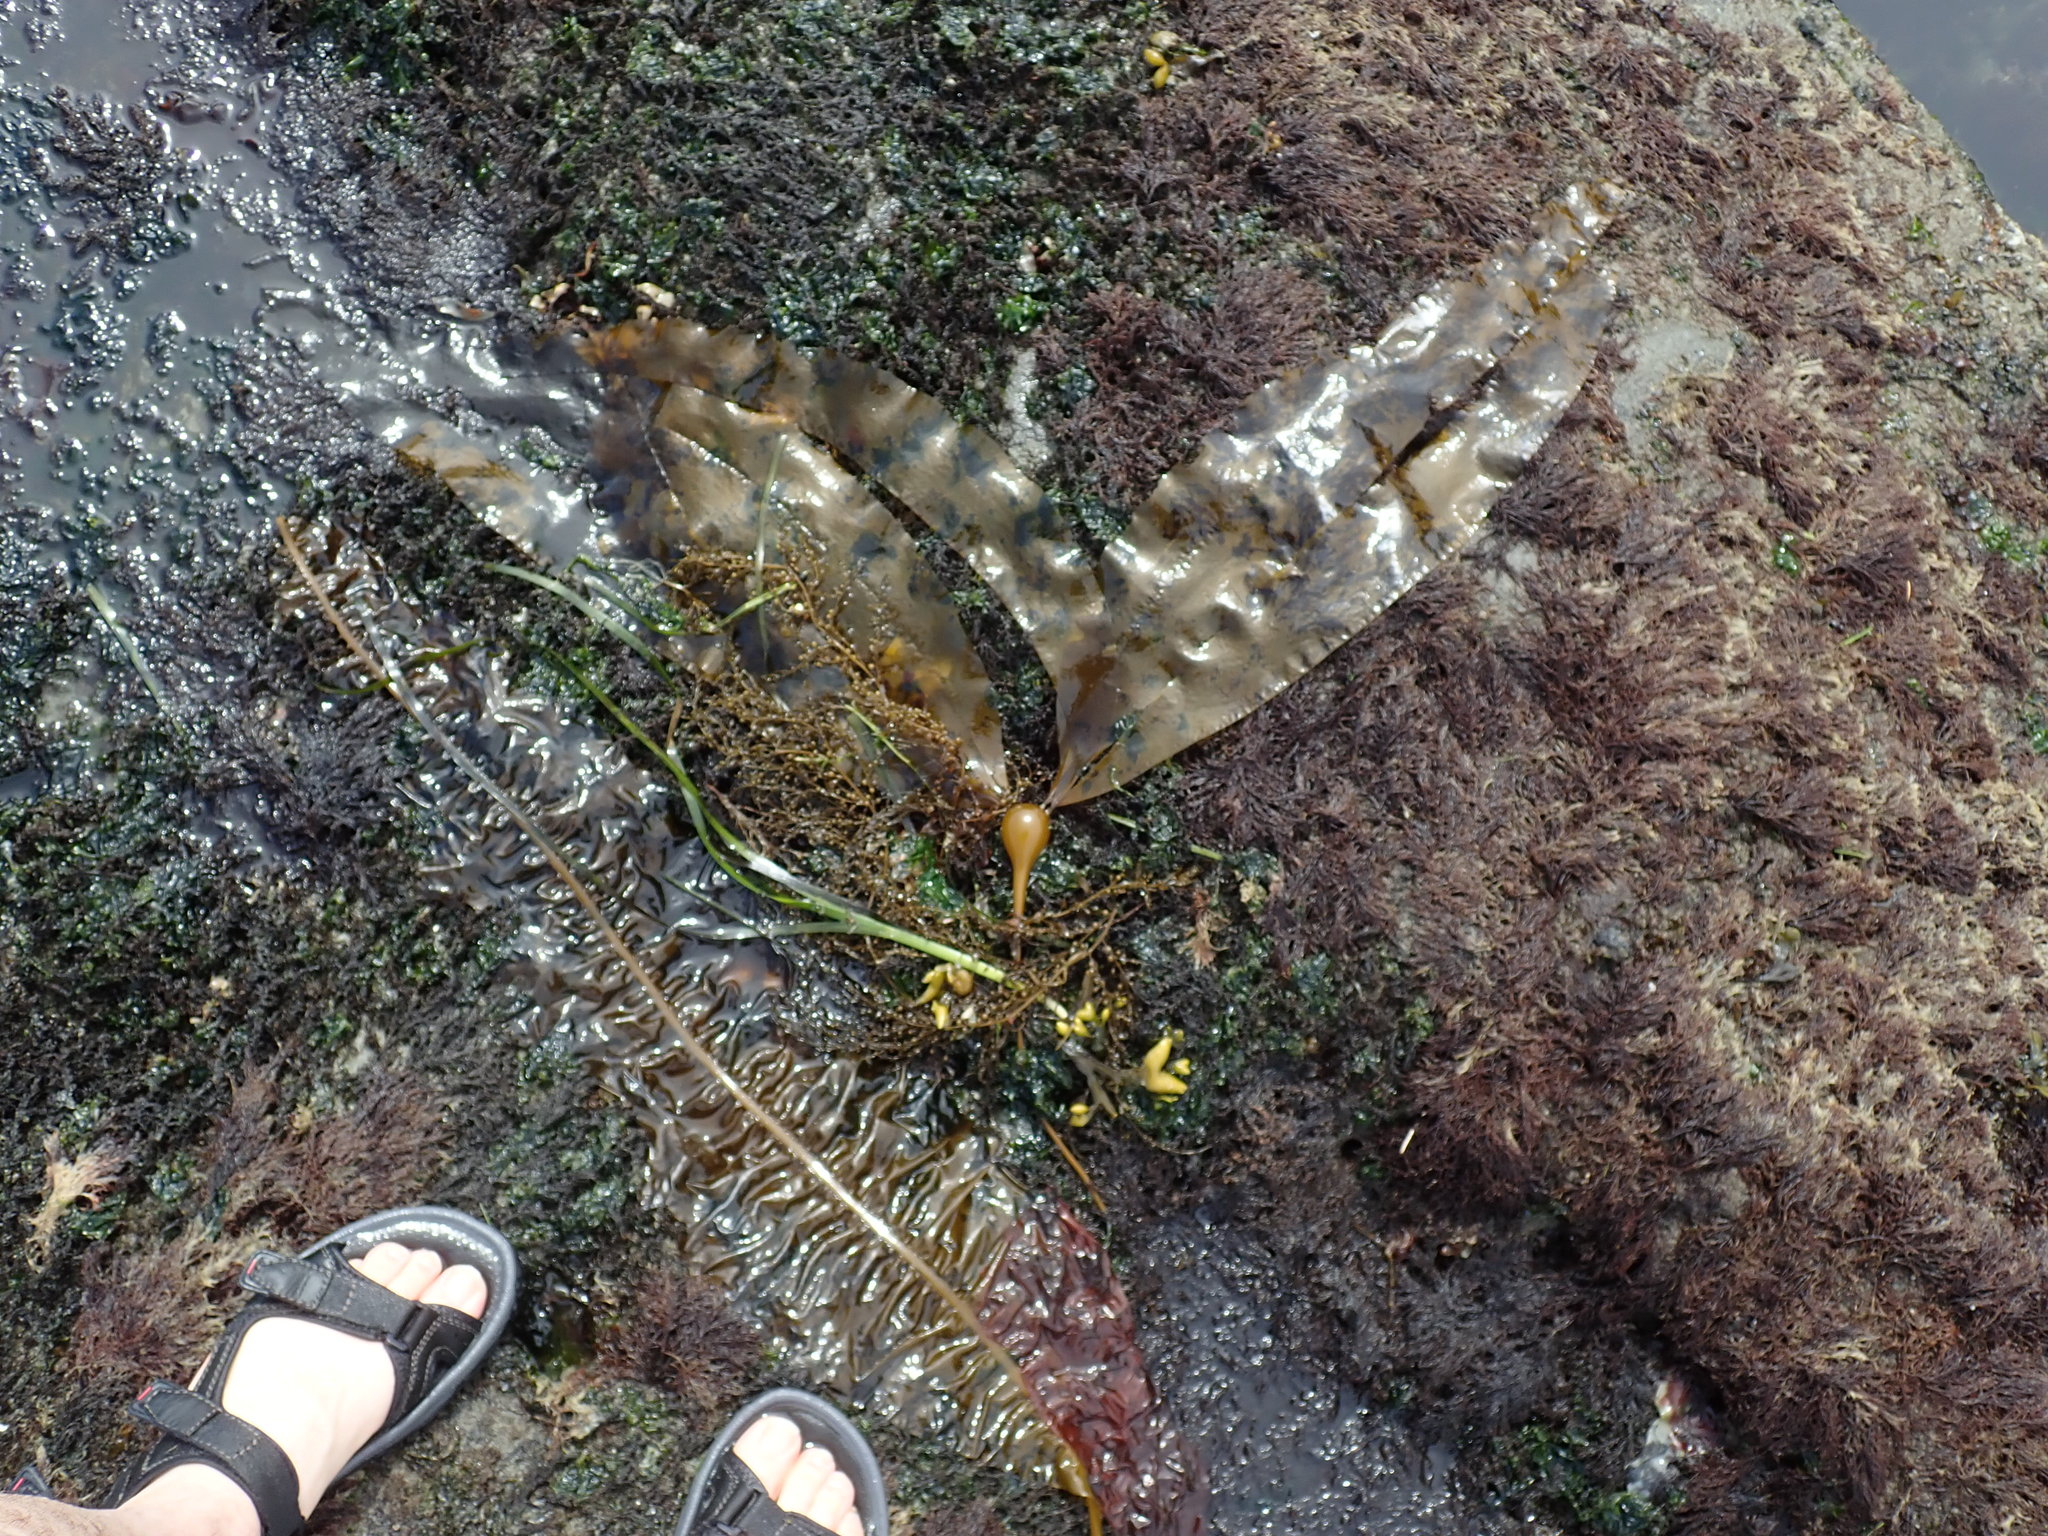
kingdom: Chromista
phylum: Ochrophyta
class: Phaeophyceae
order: Laminariales
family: Laminariaceae
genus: Nereocystis
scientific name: Nereocystis luetkeana
